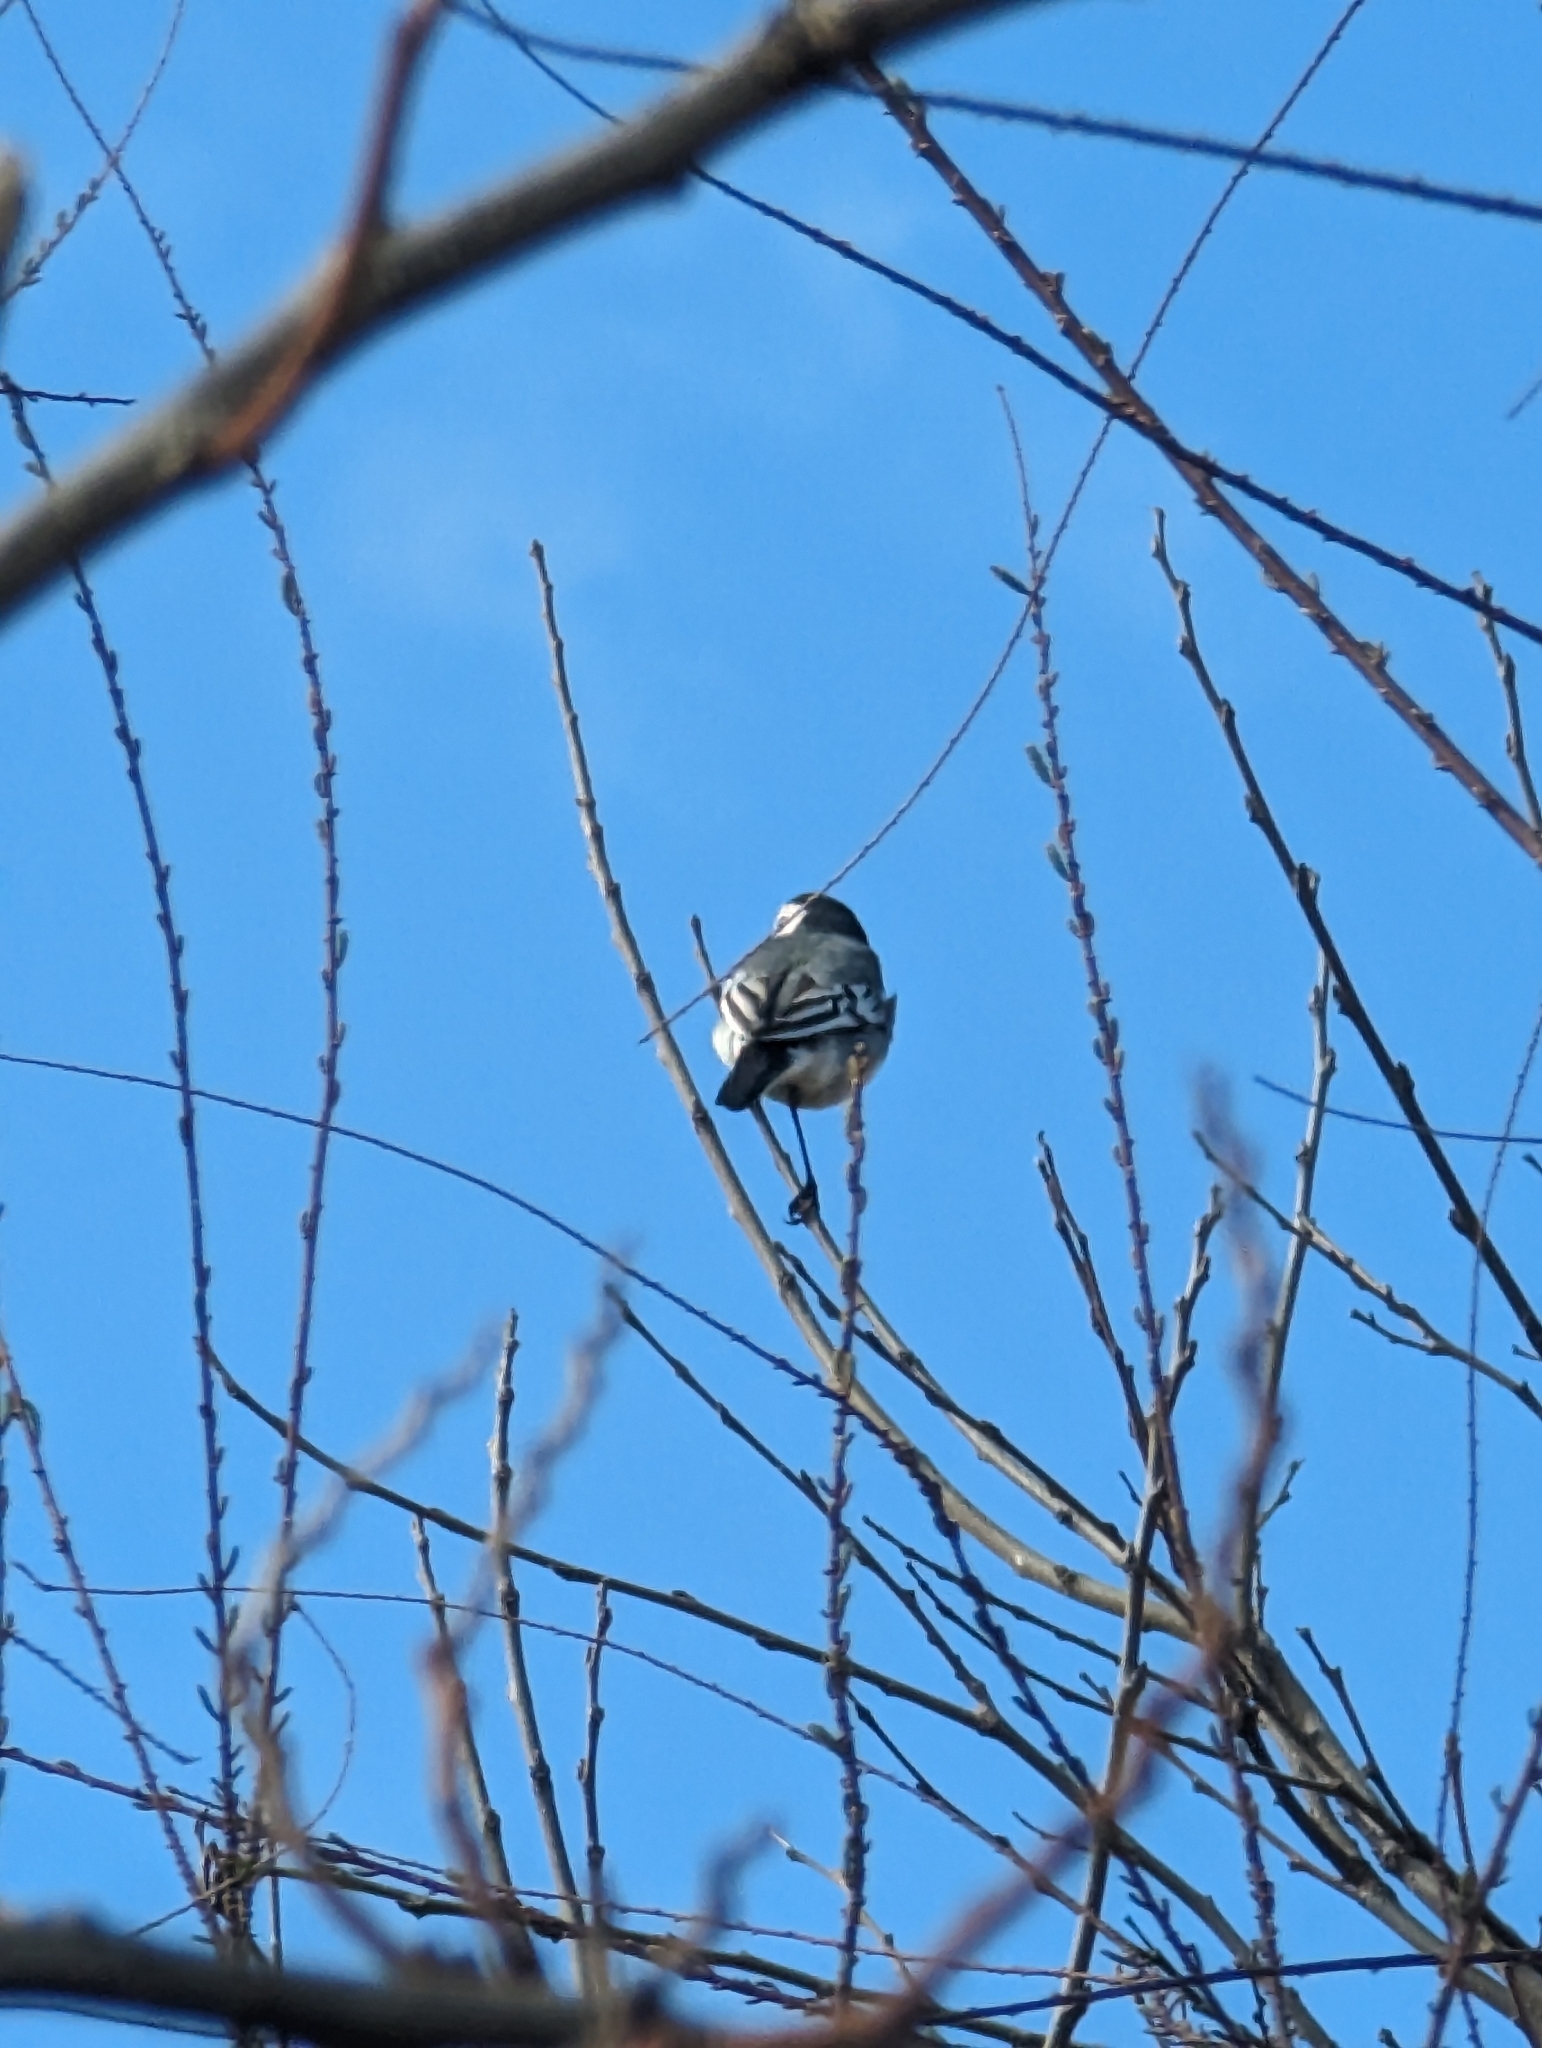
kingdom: Animalia
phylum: Chordata
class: Aves
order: Passeriformes
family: Motacillidae
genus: Motacilla
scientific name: Motacilla alba
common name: White wagtail
